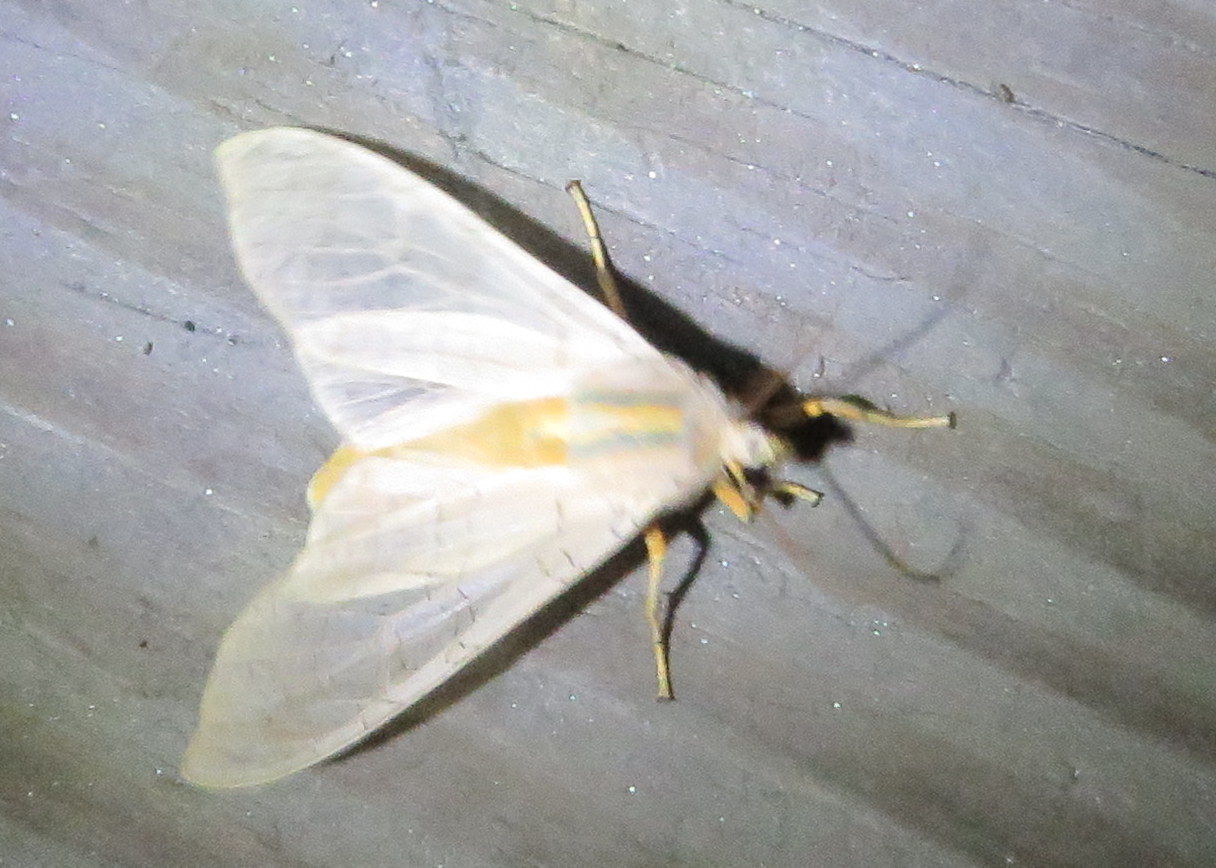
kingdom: Animalia
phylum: Arthropoda
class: Insecta
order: Lepidoptera
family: Erebidae
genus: Halysidota
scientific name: Halysidota tessellaris
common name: Banded tussock moth
